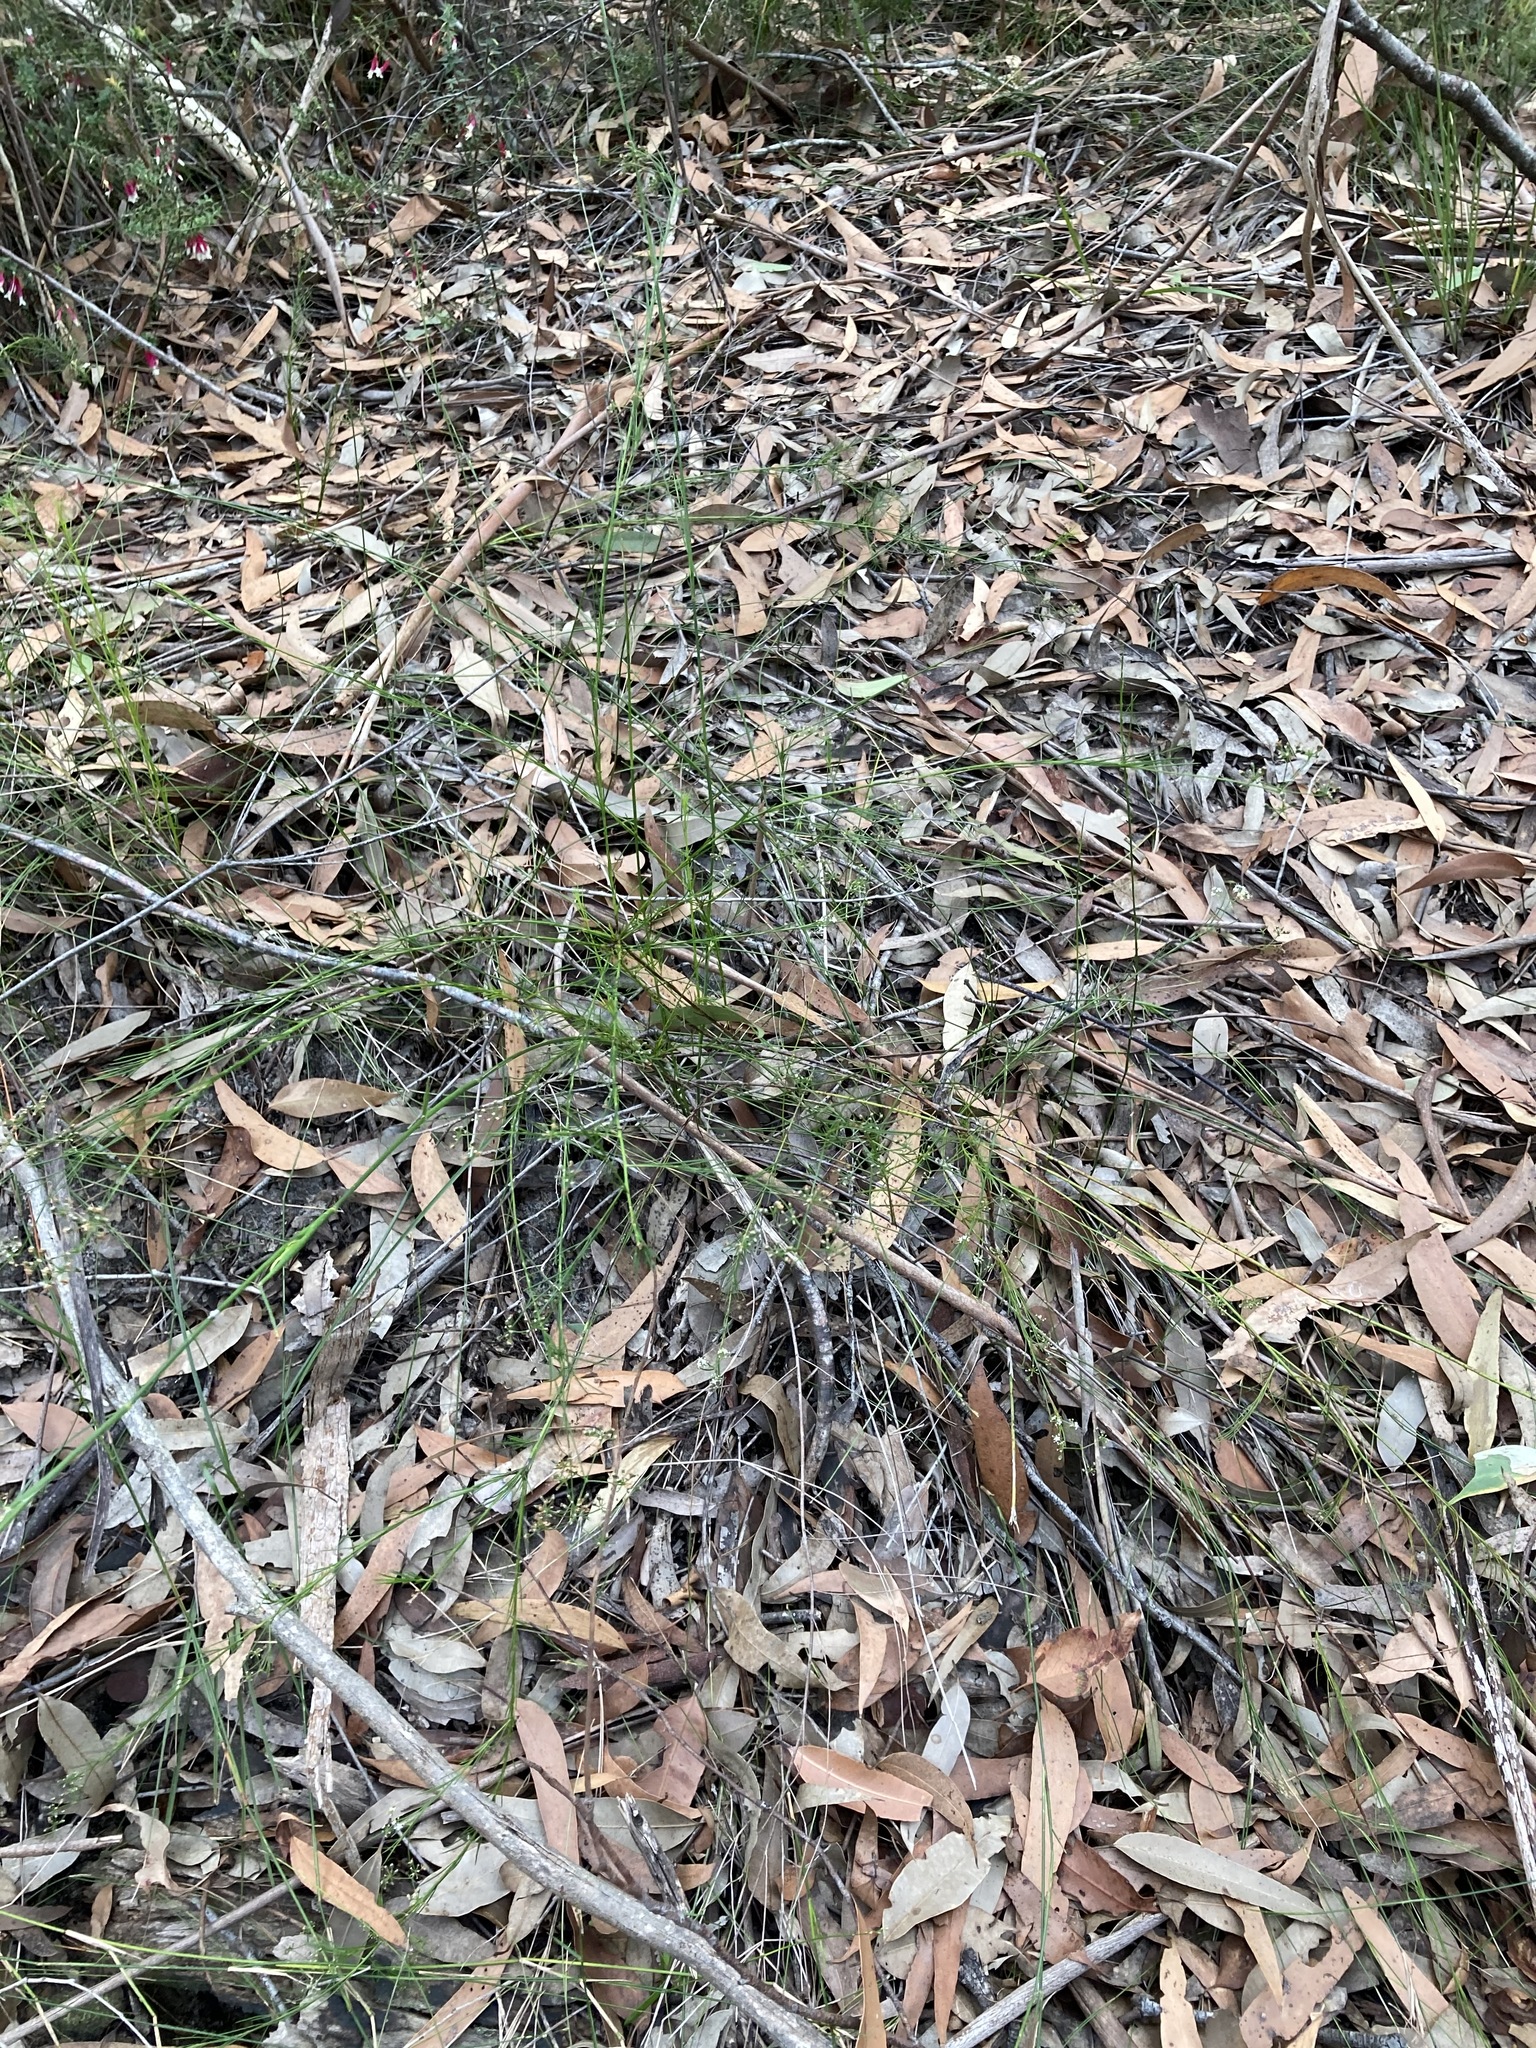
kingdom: Plantae
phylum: Tracheophyta
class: Magnoliopsida
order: Apiales
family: Apiaceae
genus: Platysace
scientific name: Platysace linearifolia
